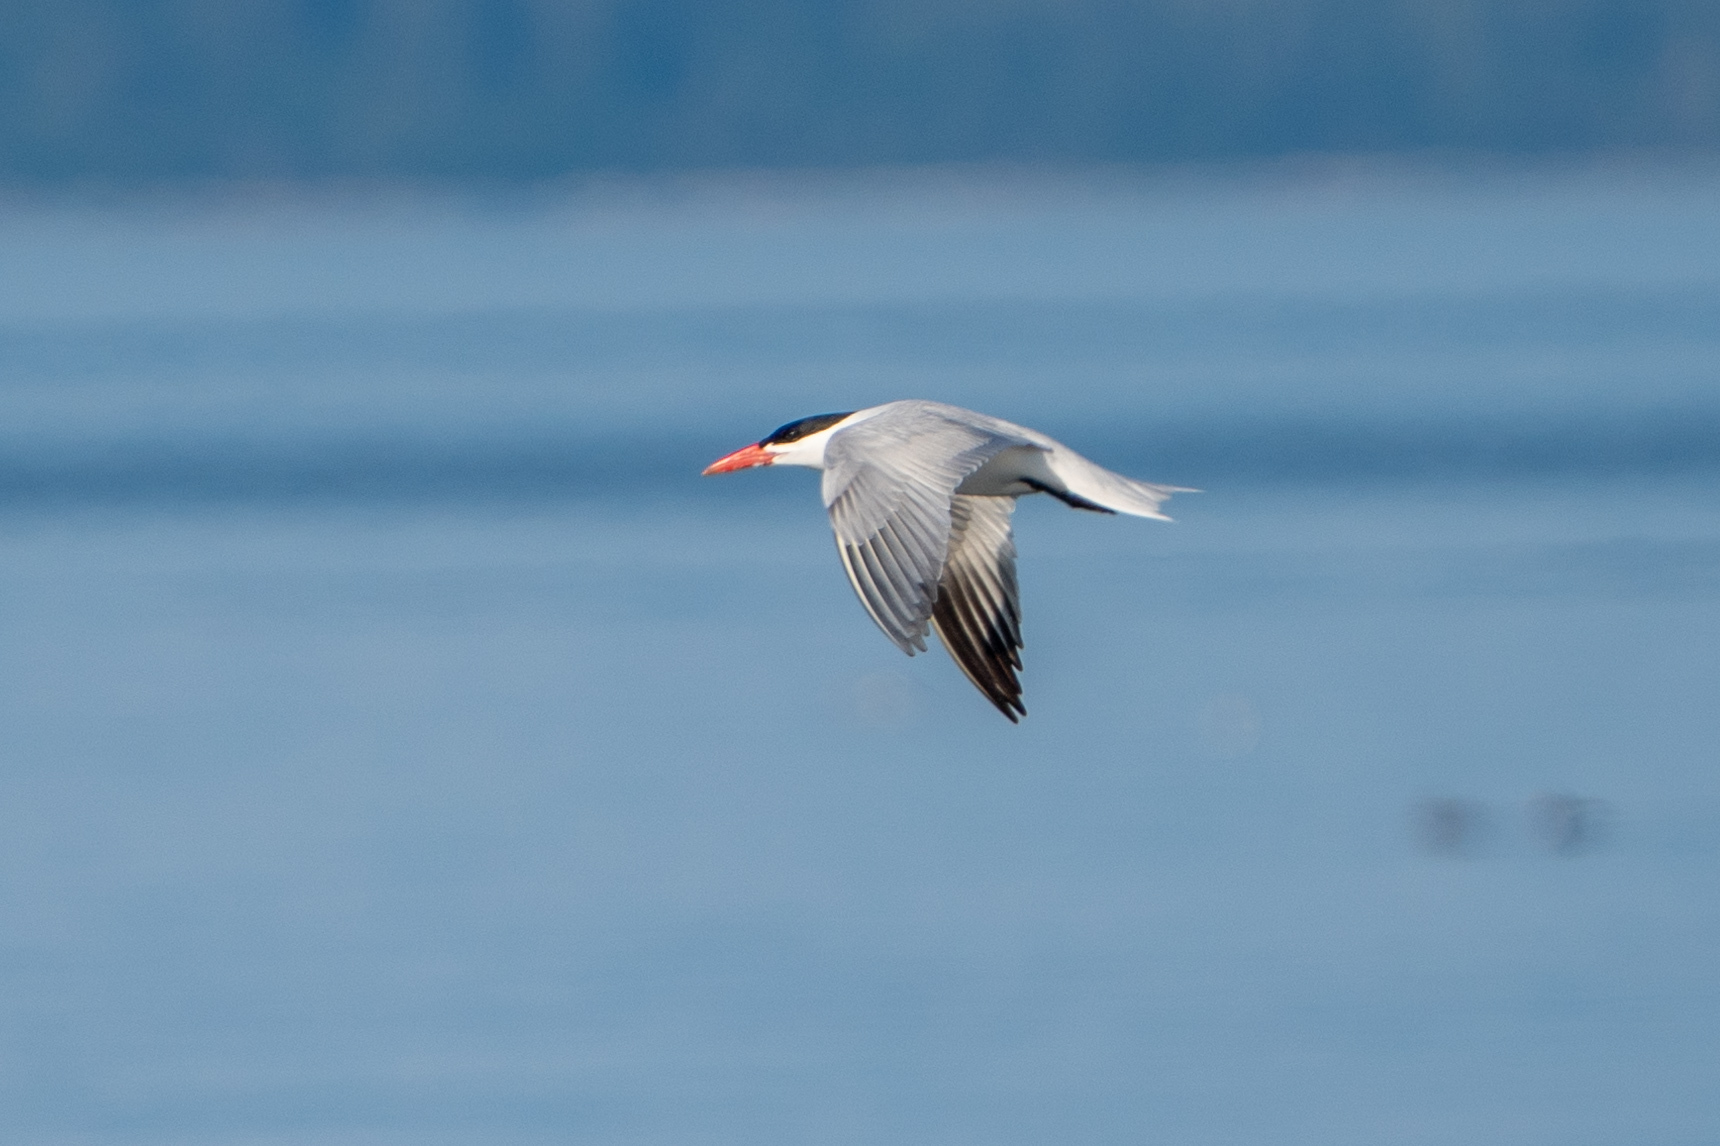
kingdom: Animalia
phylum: Chordata
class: Aves
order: Charadriiformes
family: Laridae
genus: Hydroprogne
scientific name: Hydroprogne caspia
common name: Caspian tern
